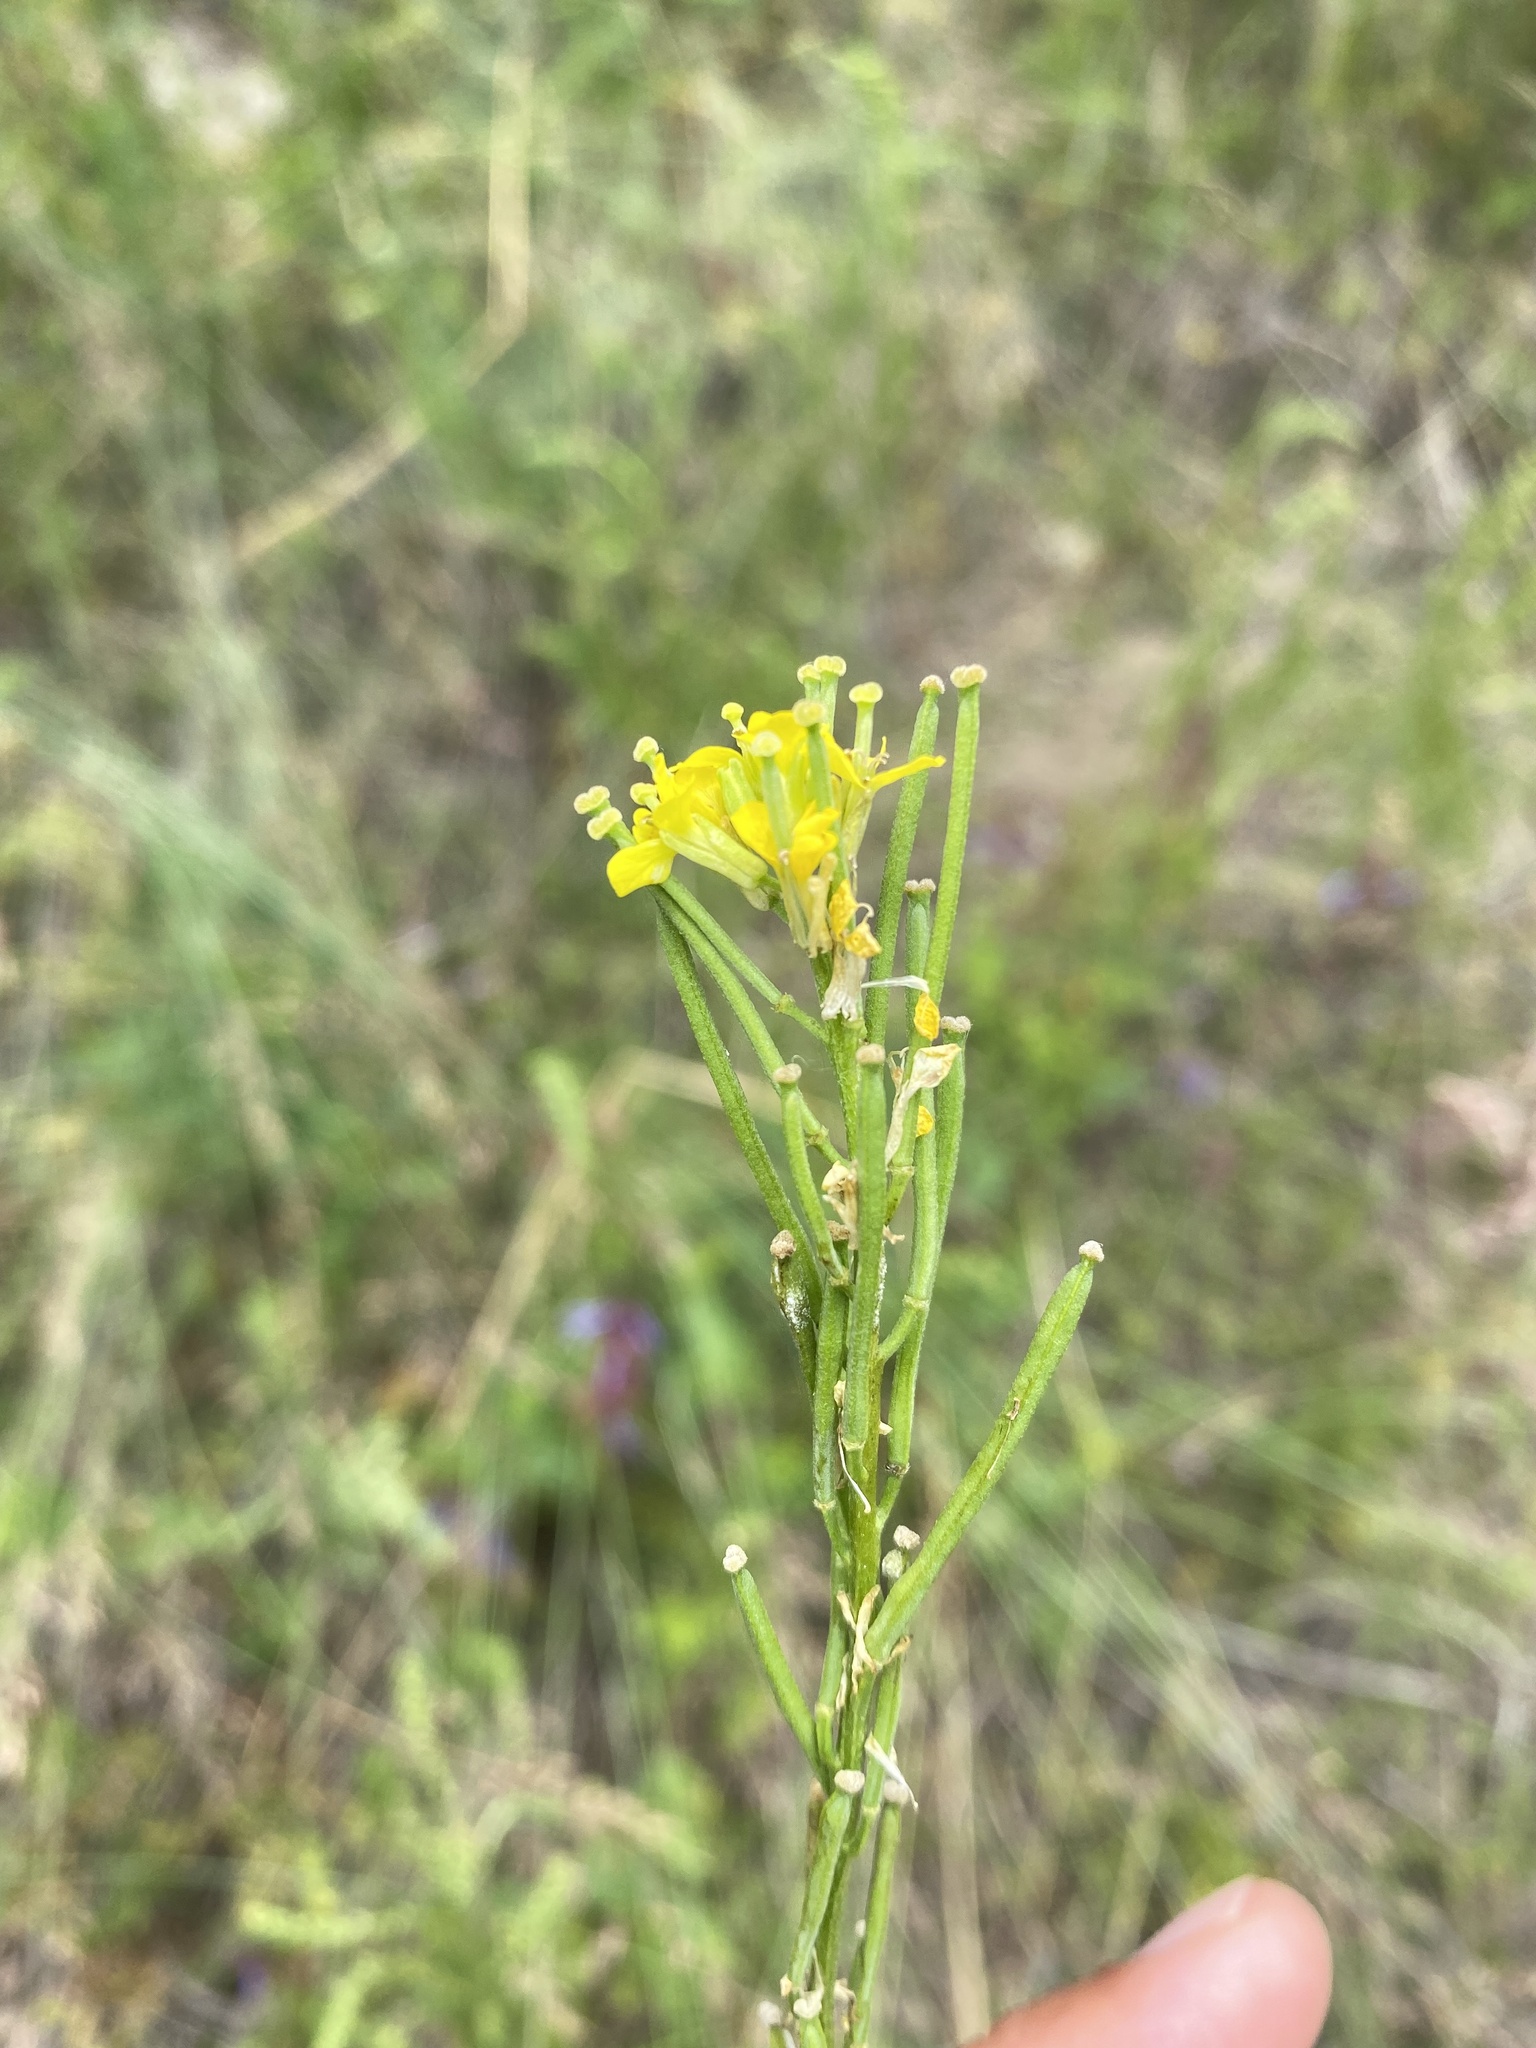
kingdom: Plantae
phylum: Tracheophyta
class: Magnoliopsida
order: Brassicales
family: Brassicaceae
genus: Erysimum
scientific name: Erysimum hieraciifolium
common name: European wallflower
